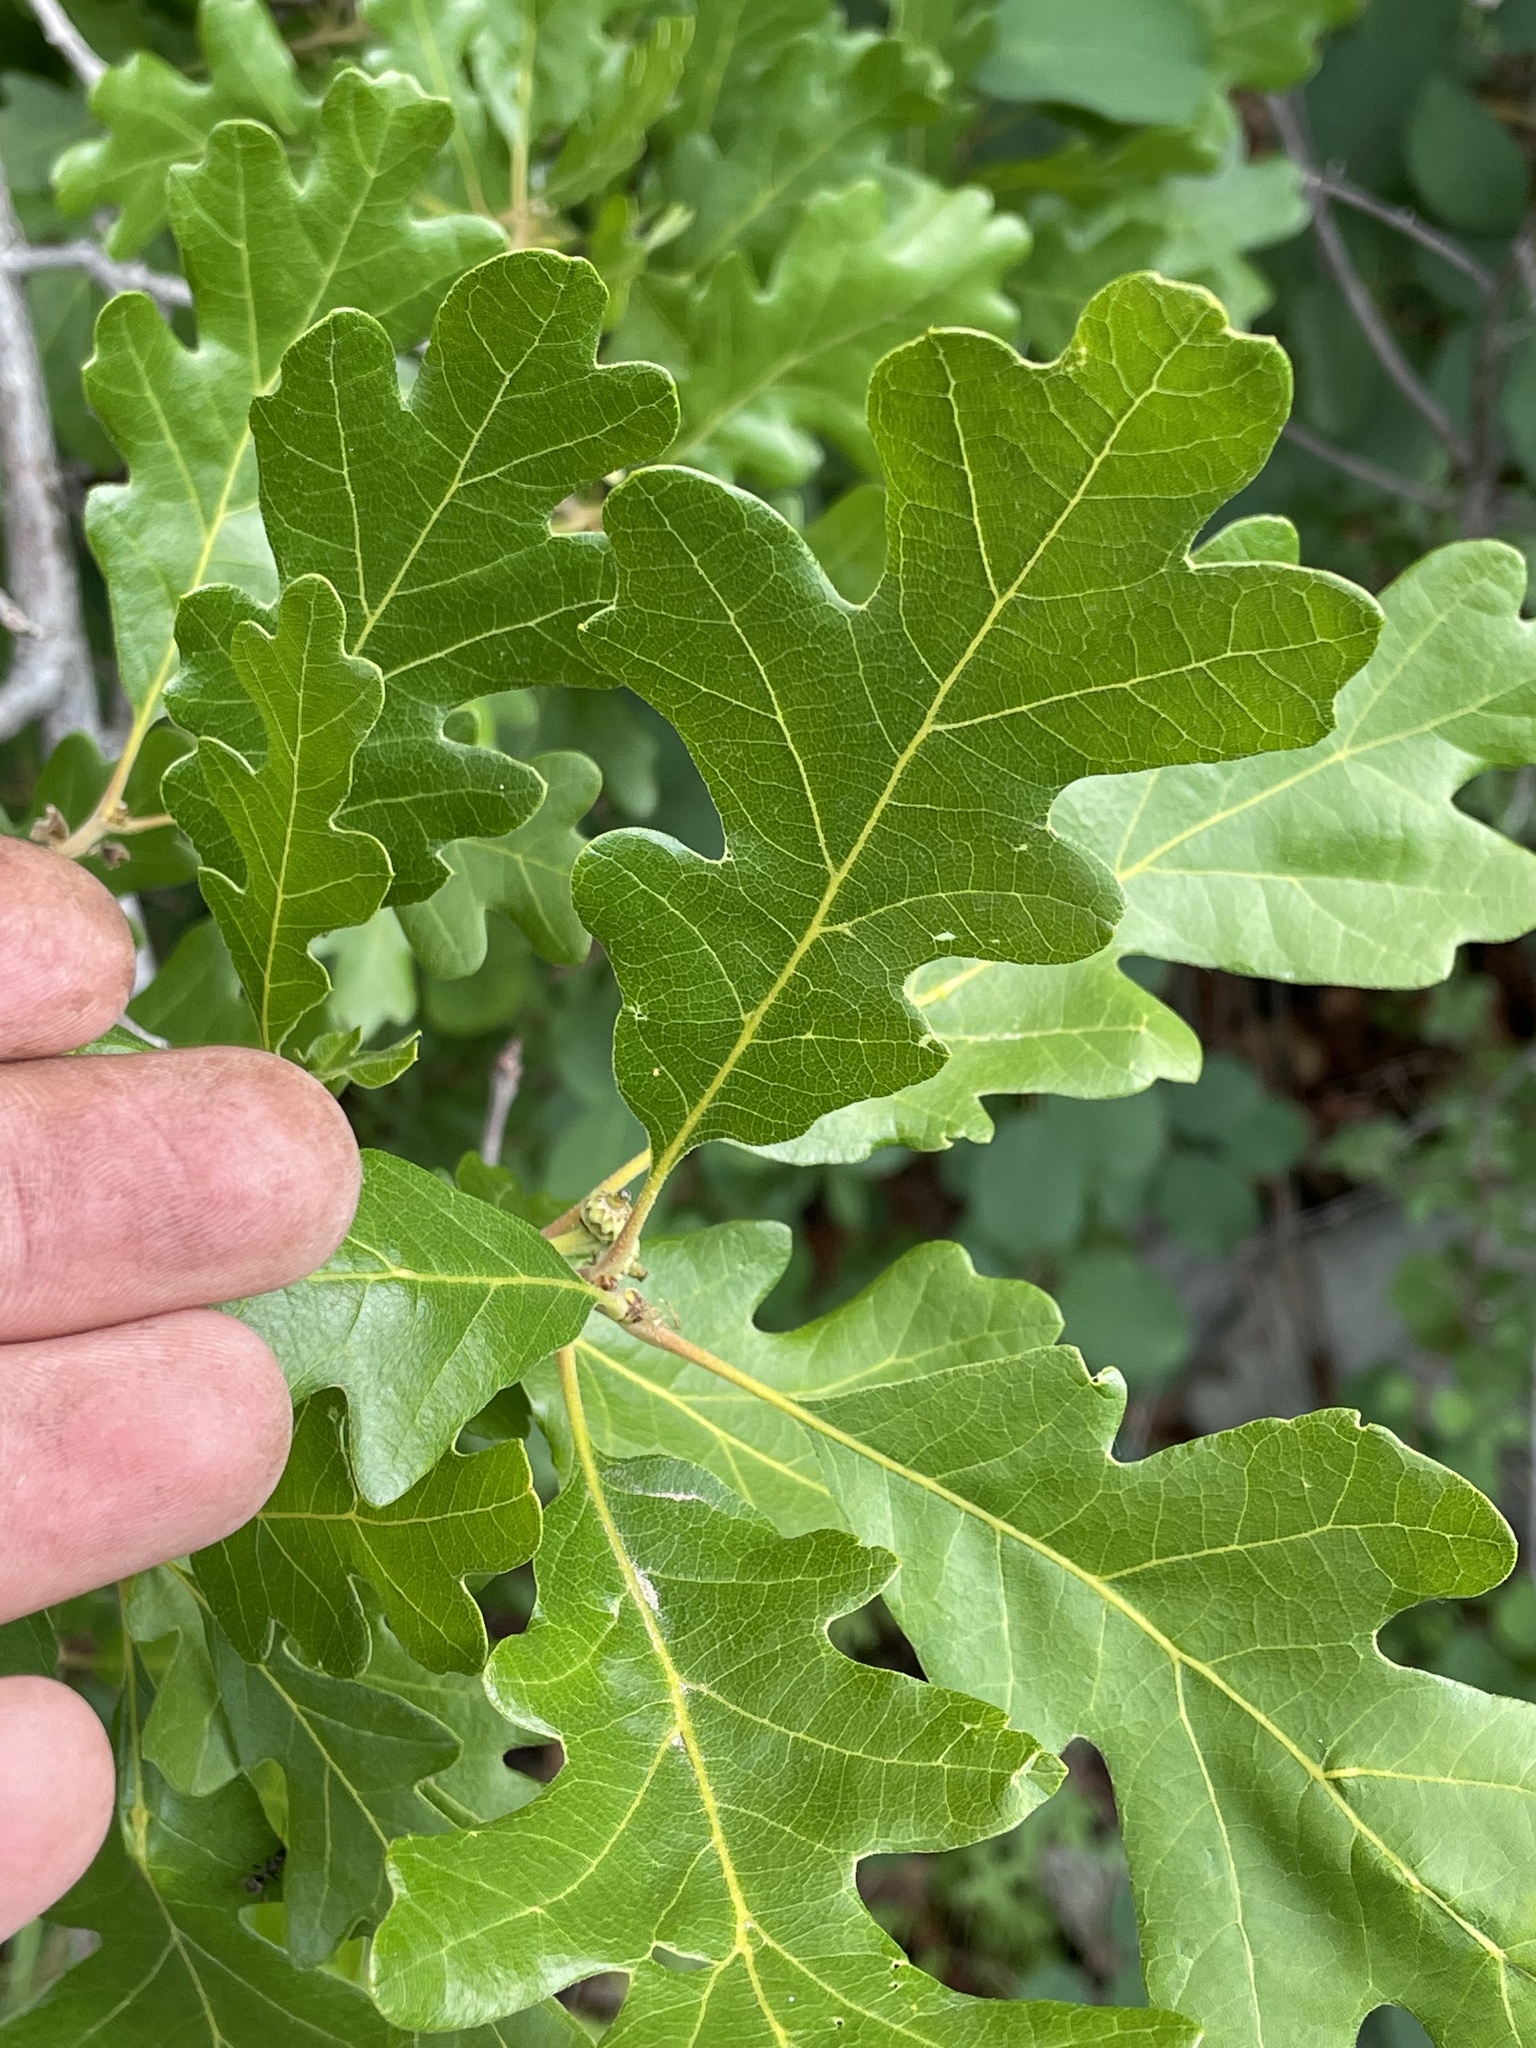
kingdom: Plantae
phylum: Tracheophyta
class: Magnoliopsida
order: Fagales
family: Fagaceae
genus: Quercus
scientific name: Quercus gambelii
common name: Gambel oak
